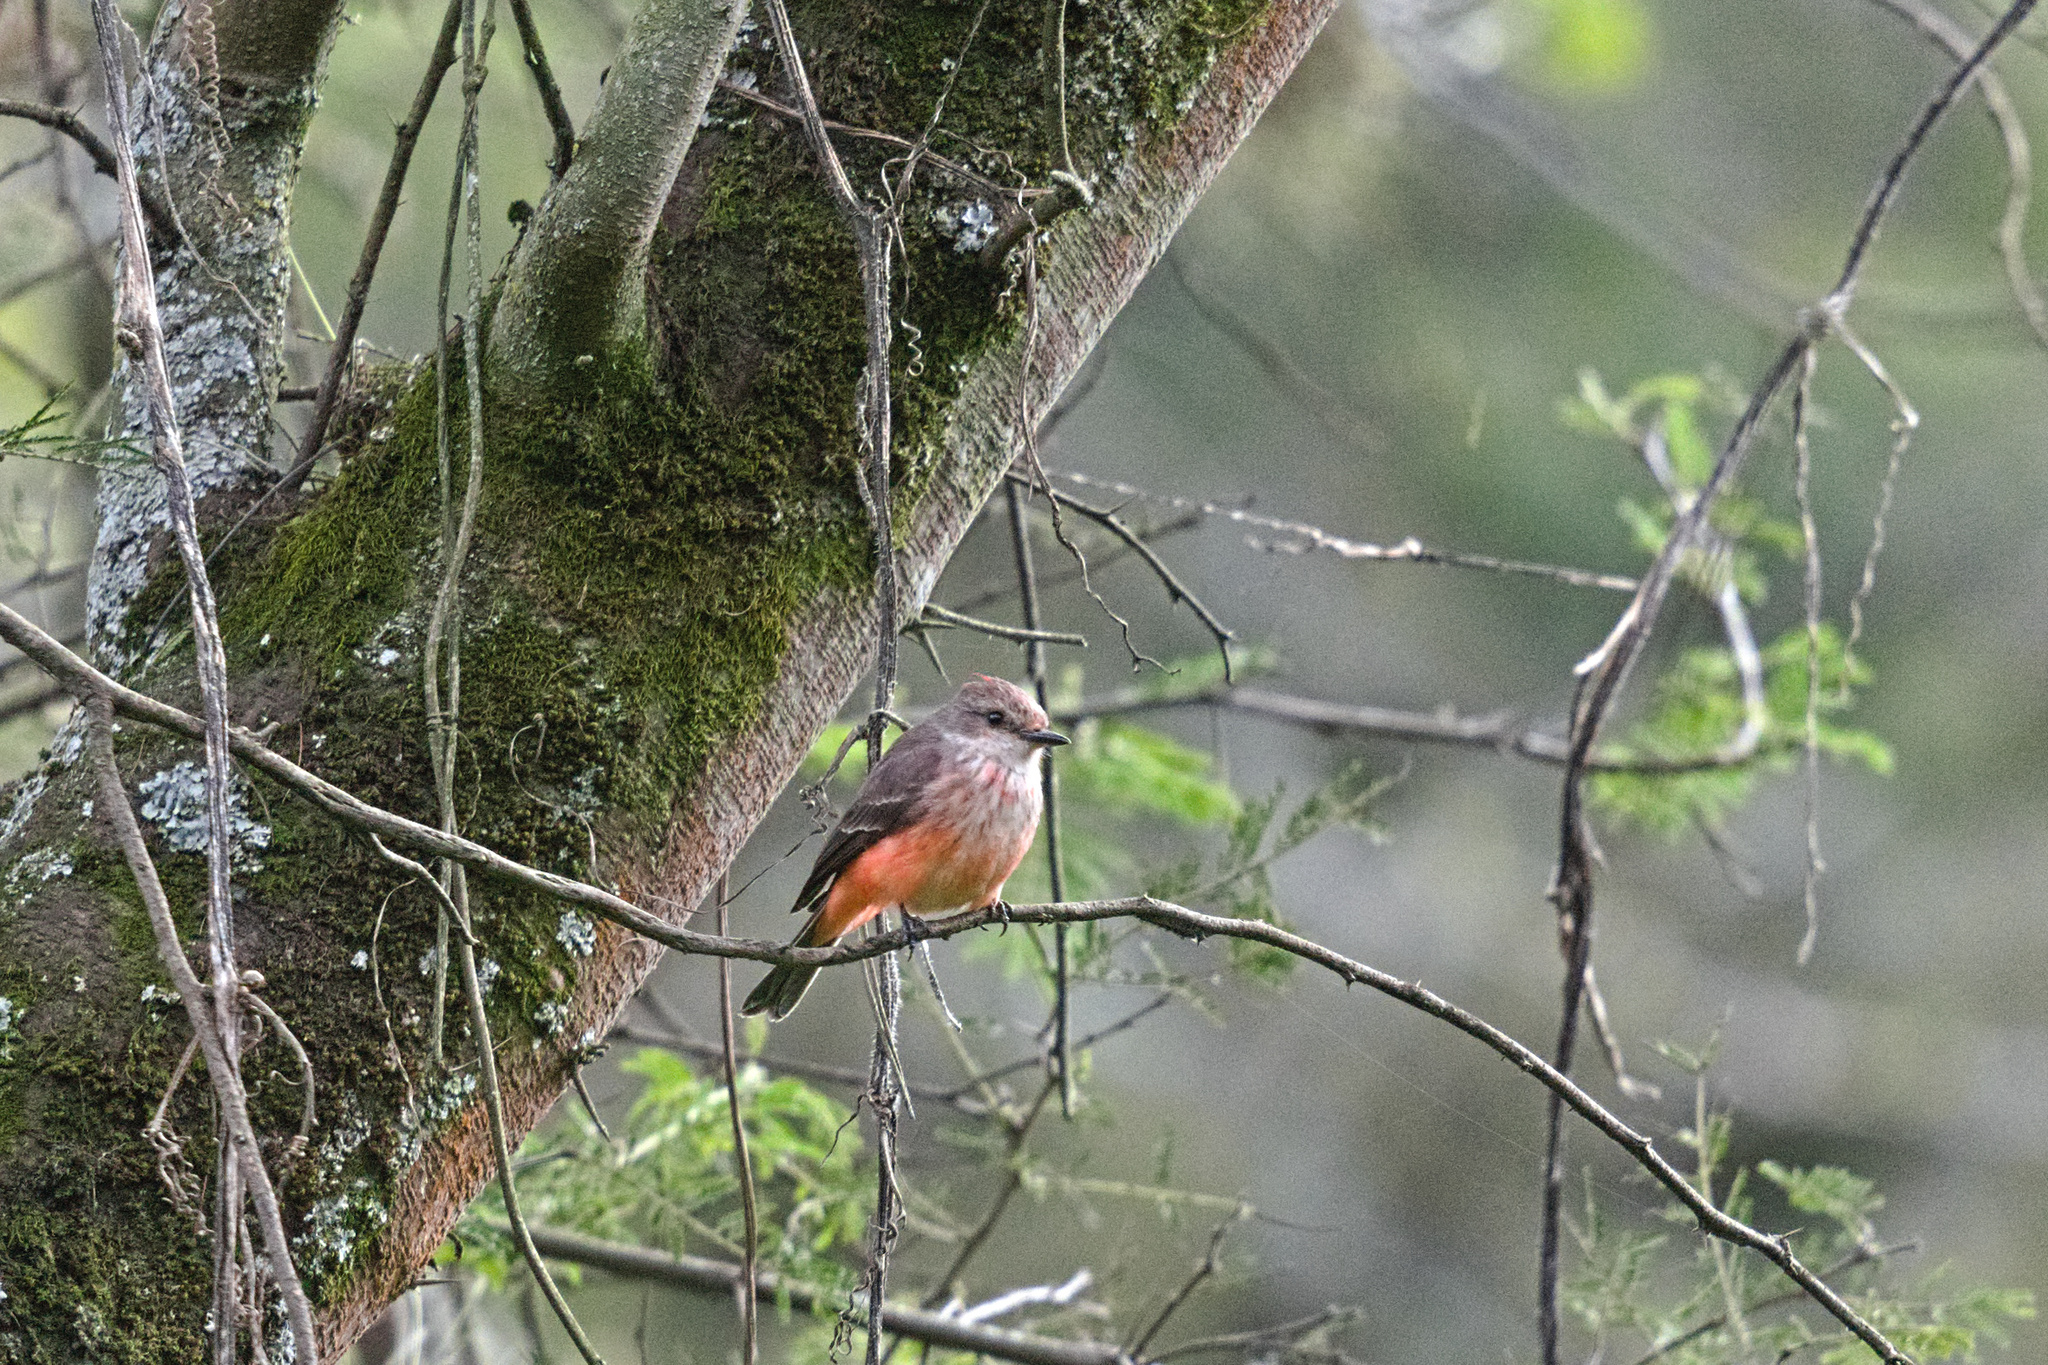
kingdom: Animalia
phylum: Chordata
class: Aves
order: Passeriformes
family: Tyrannidae
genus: Pyrocephalus
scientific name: Pyrocephalus rubinus
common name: Vermilion flycatcher
